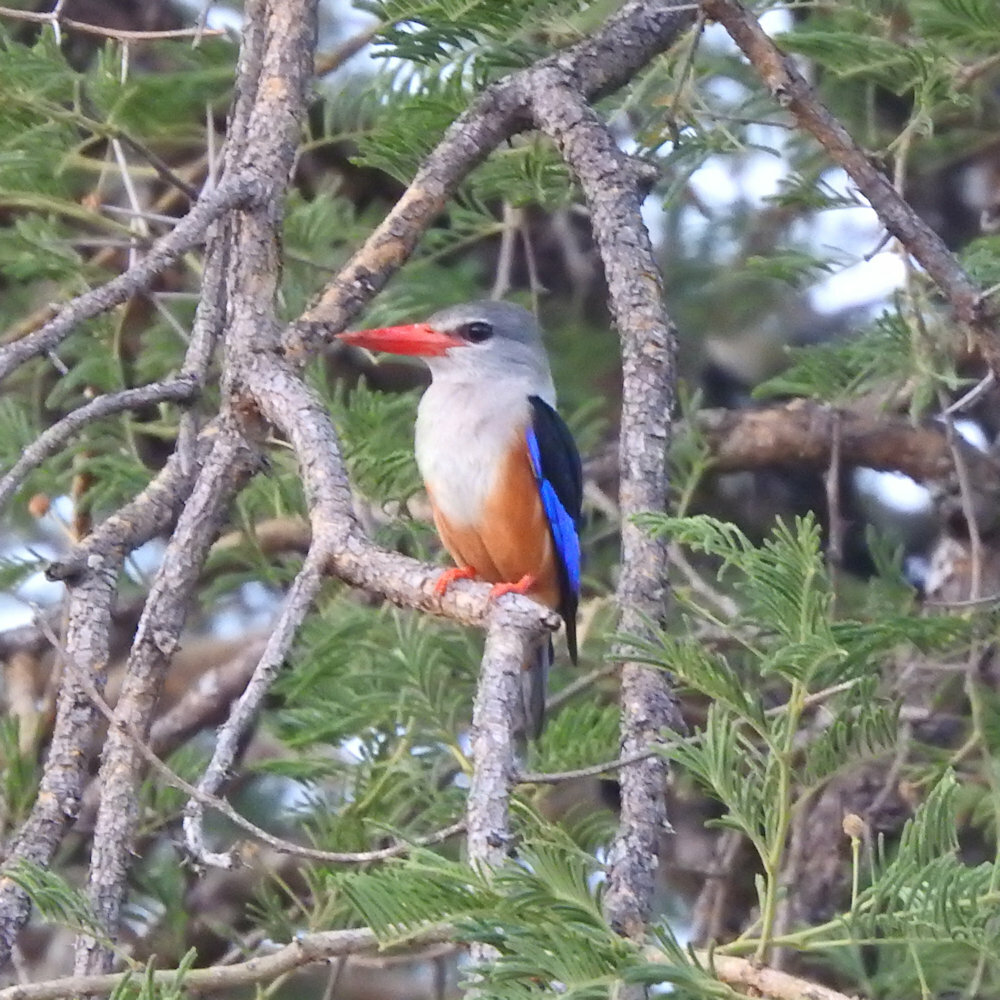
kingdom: Animalia
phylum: Chordata
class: Aves
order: Coraciiformes
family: Alcedinidae
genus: Halcyon
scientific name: Halcyon leucocephala
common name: Grey-headed kingfisher
